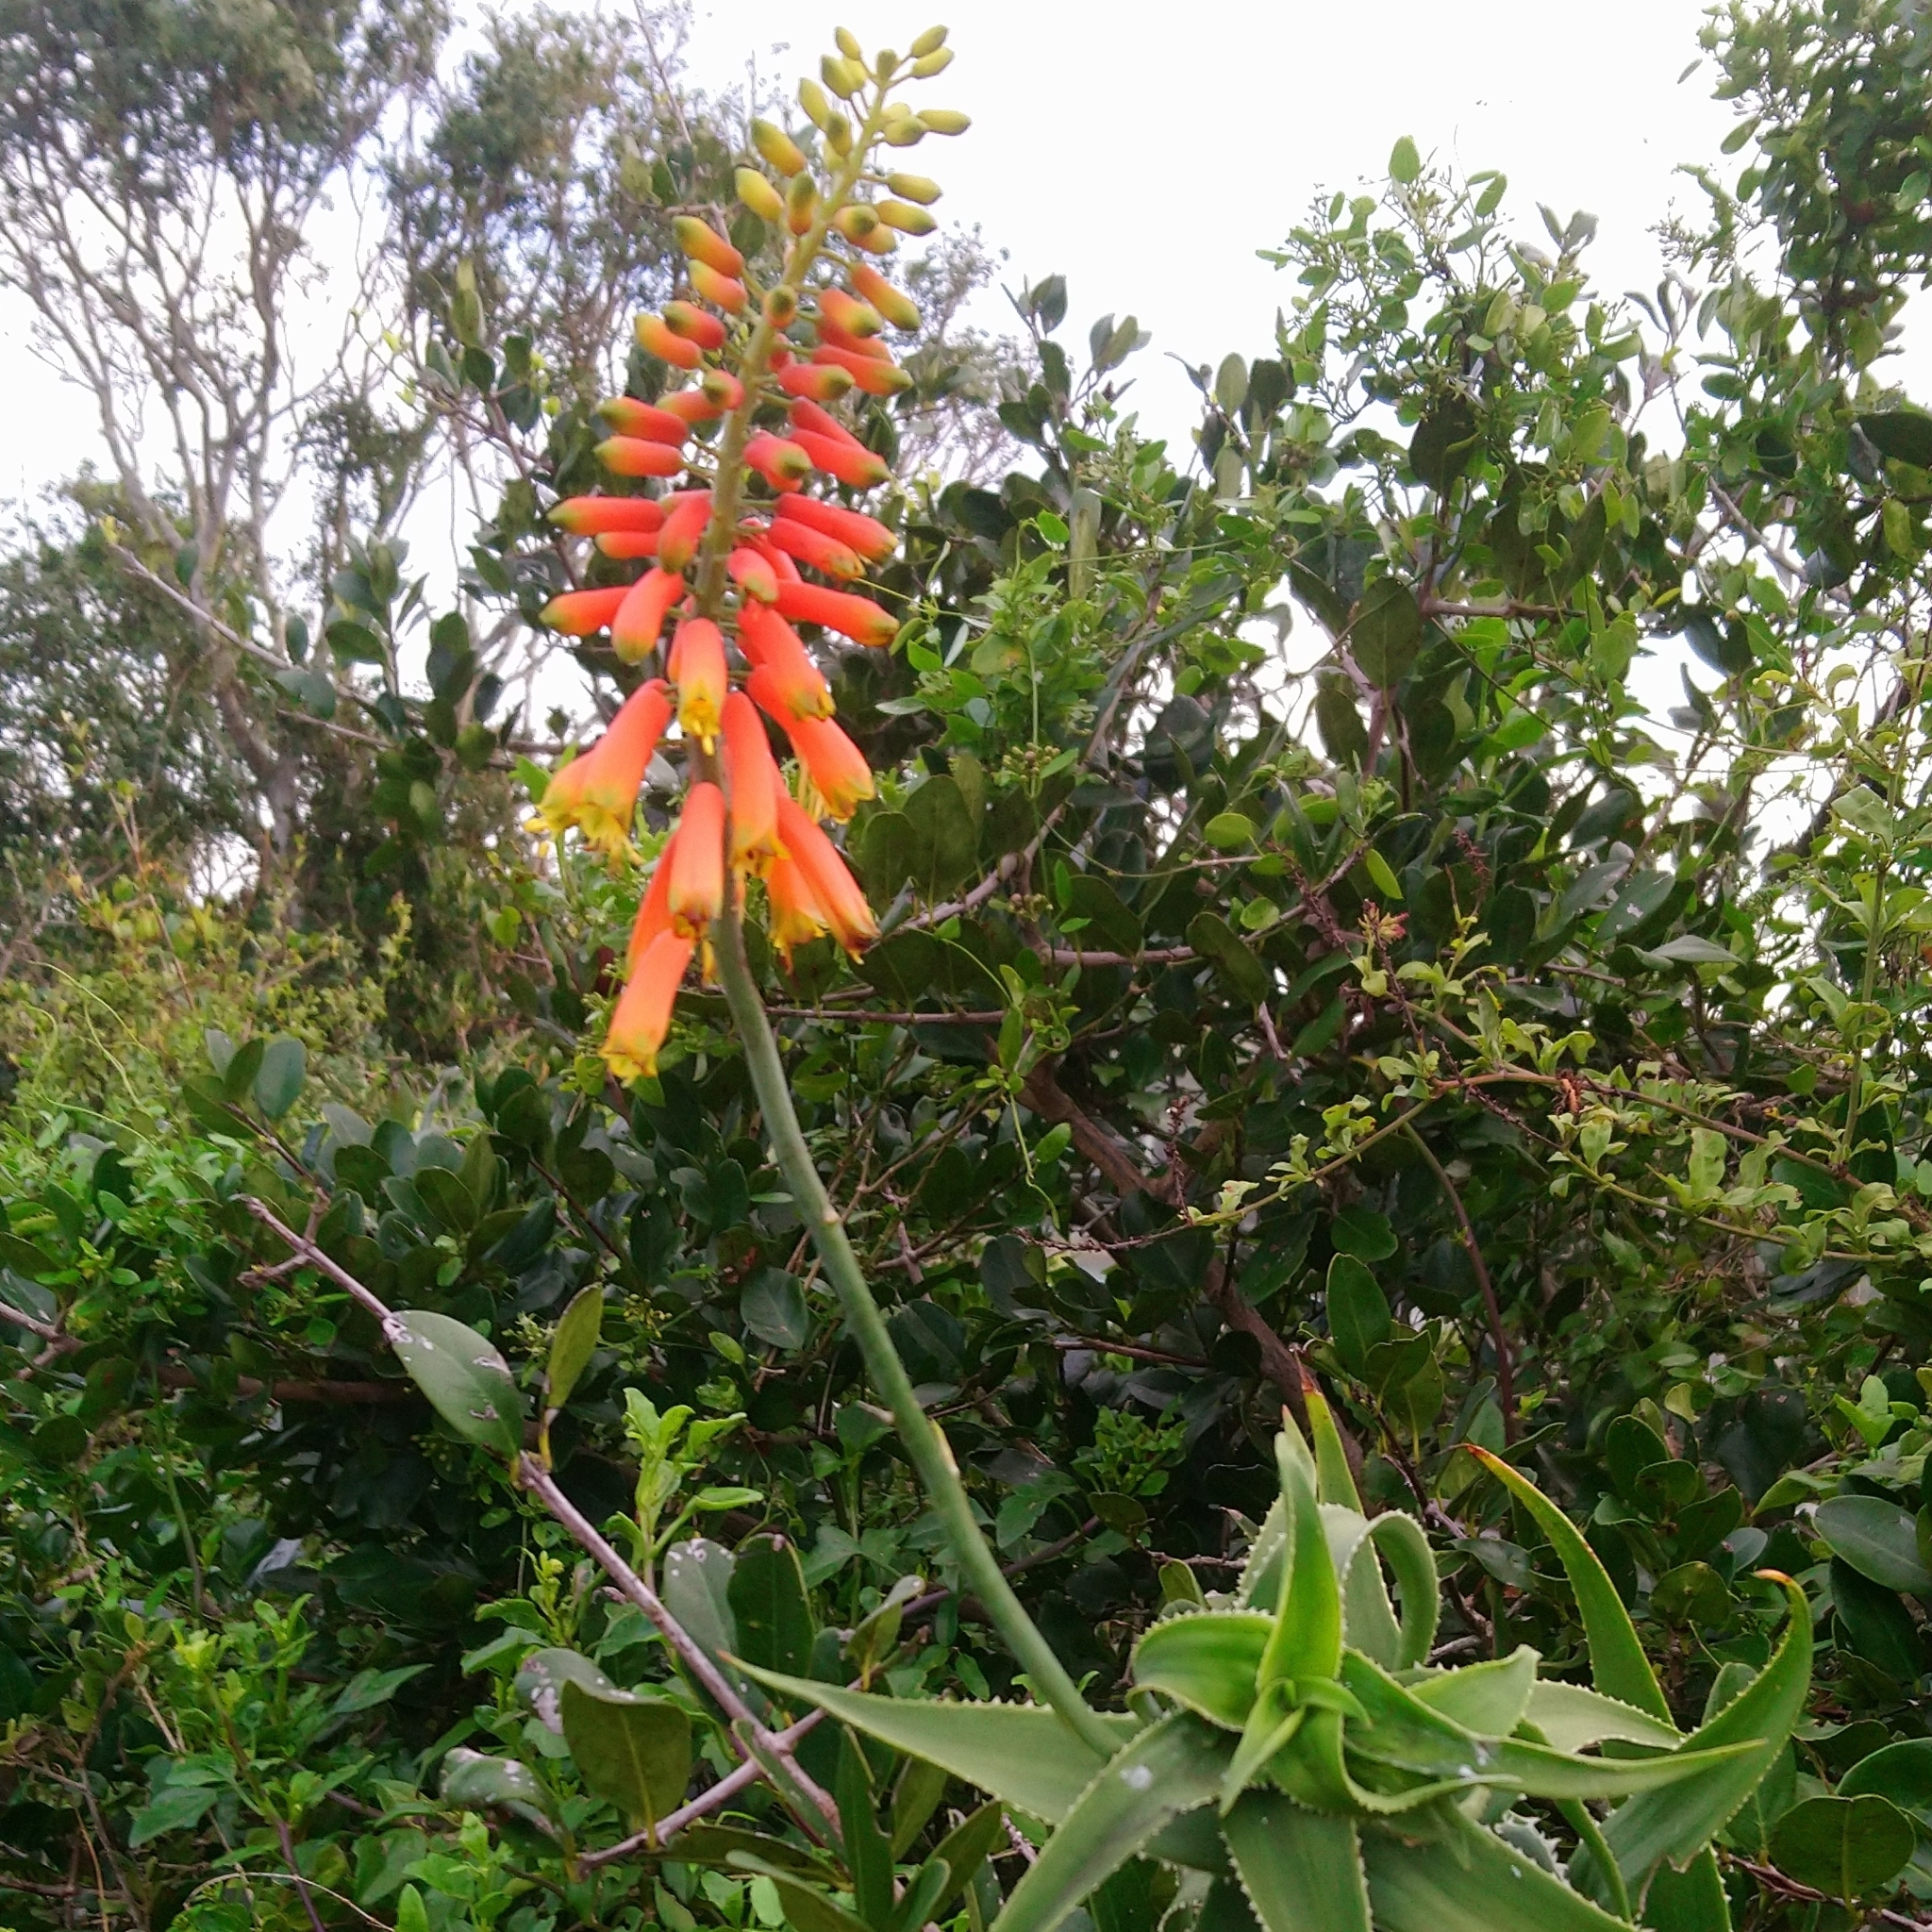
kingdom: Plantae
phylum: Tracheophyta
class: Liliopsida
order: Asparagales
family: Asphodelaceae
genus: Aloiampelos
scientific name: Aloiampelos ciliaris
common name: Climbing aloe
